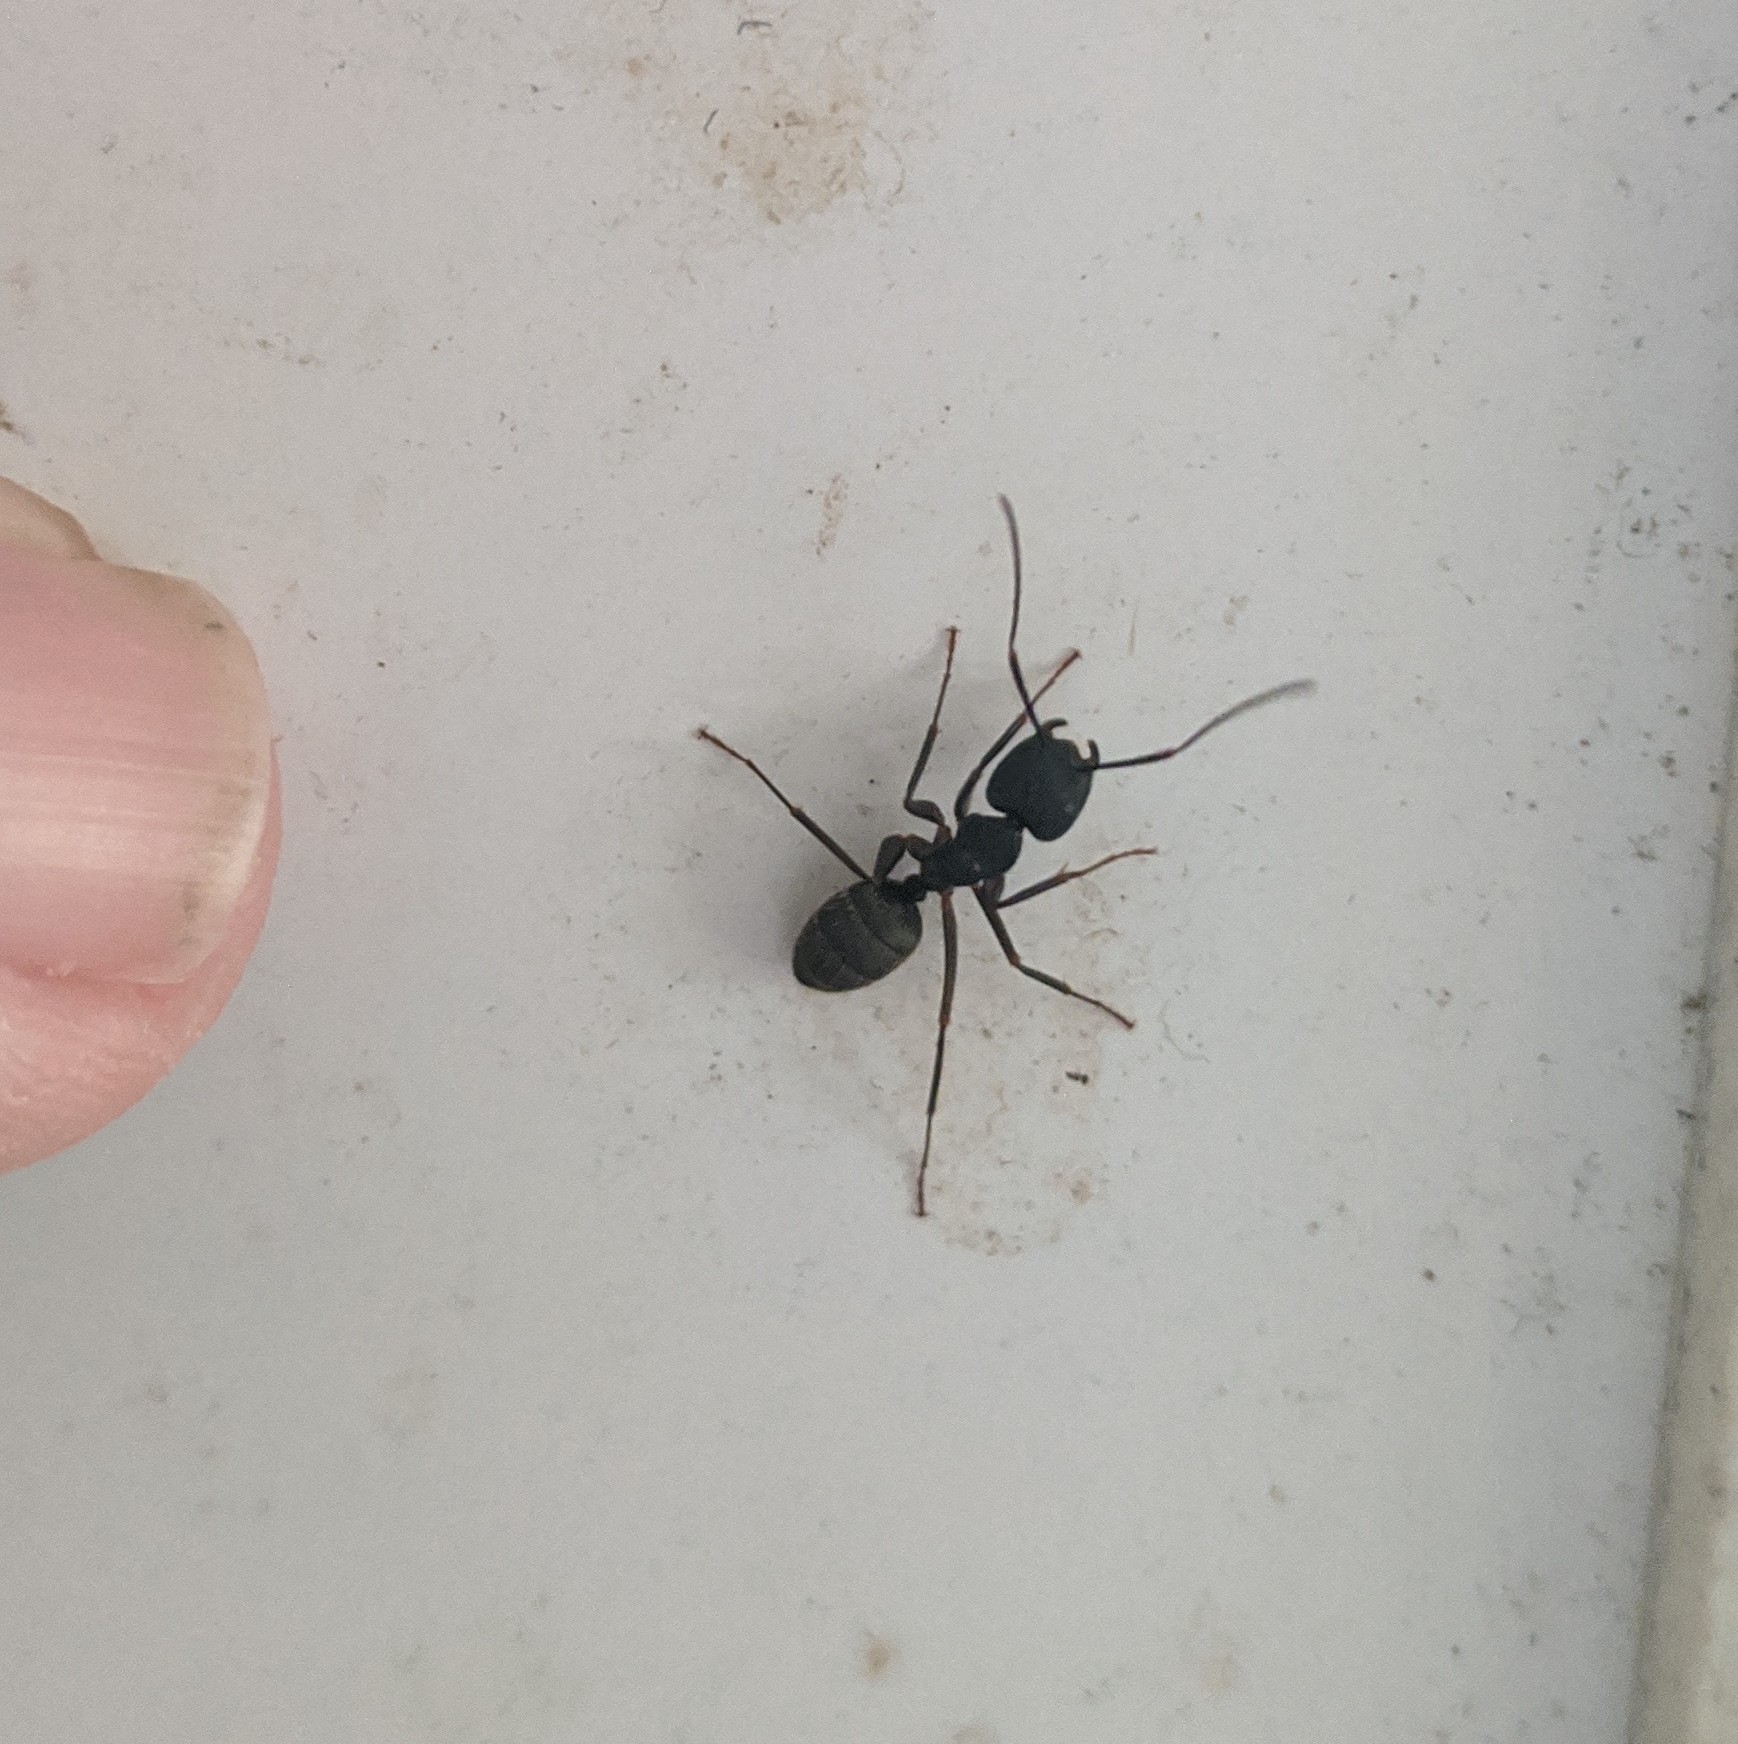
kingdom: Animalia
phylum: Arthropoda
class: Insecta
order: Hymenoptera
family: Formicidae
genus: Camponotus
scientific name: Camponotus pennsylvanicus
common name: Black carpenter ant
